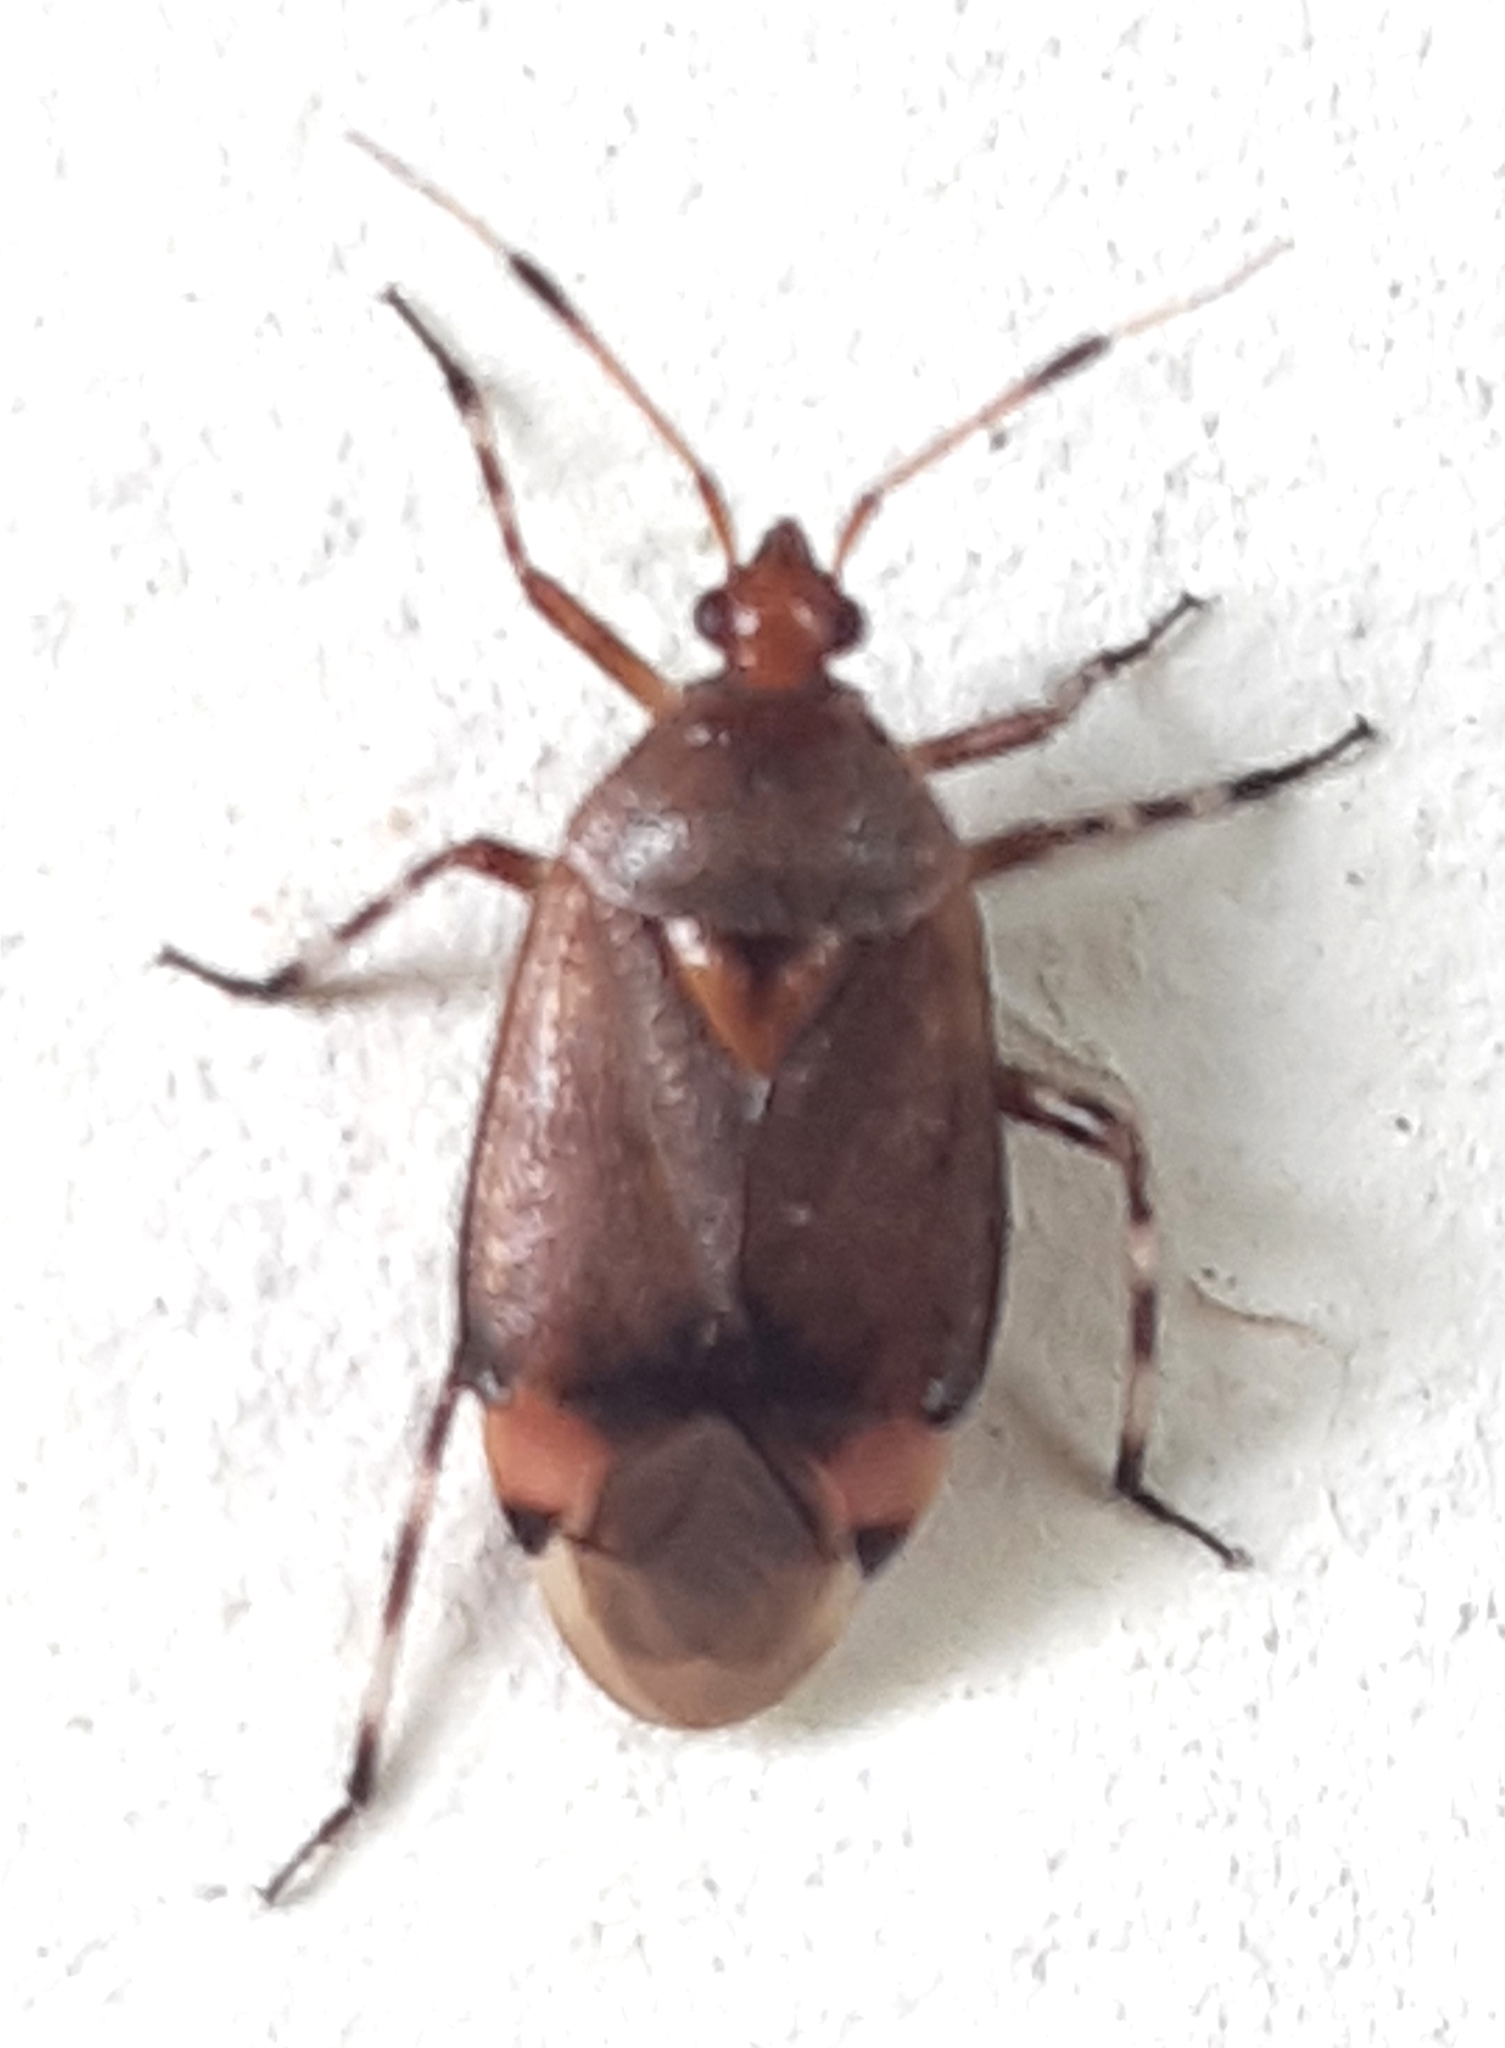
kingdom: Animalia
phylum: Arthropoda
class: Insecta
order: Hemiptera
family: Miridae
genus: Deraeocoris
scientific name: Deraeocoris olivaceus
